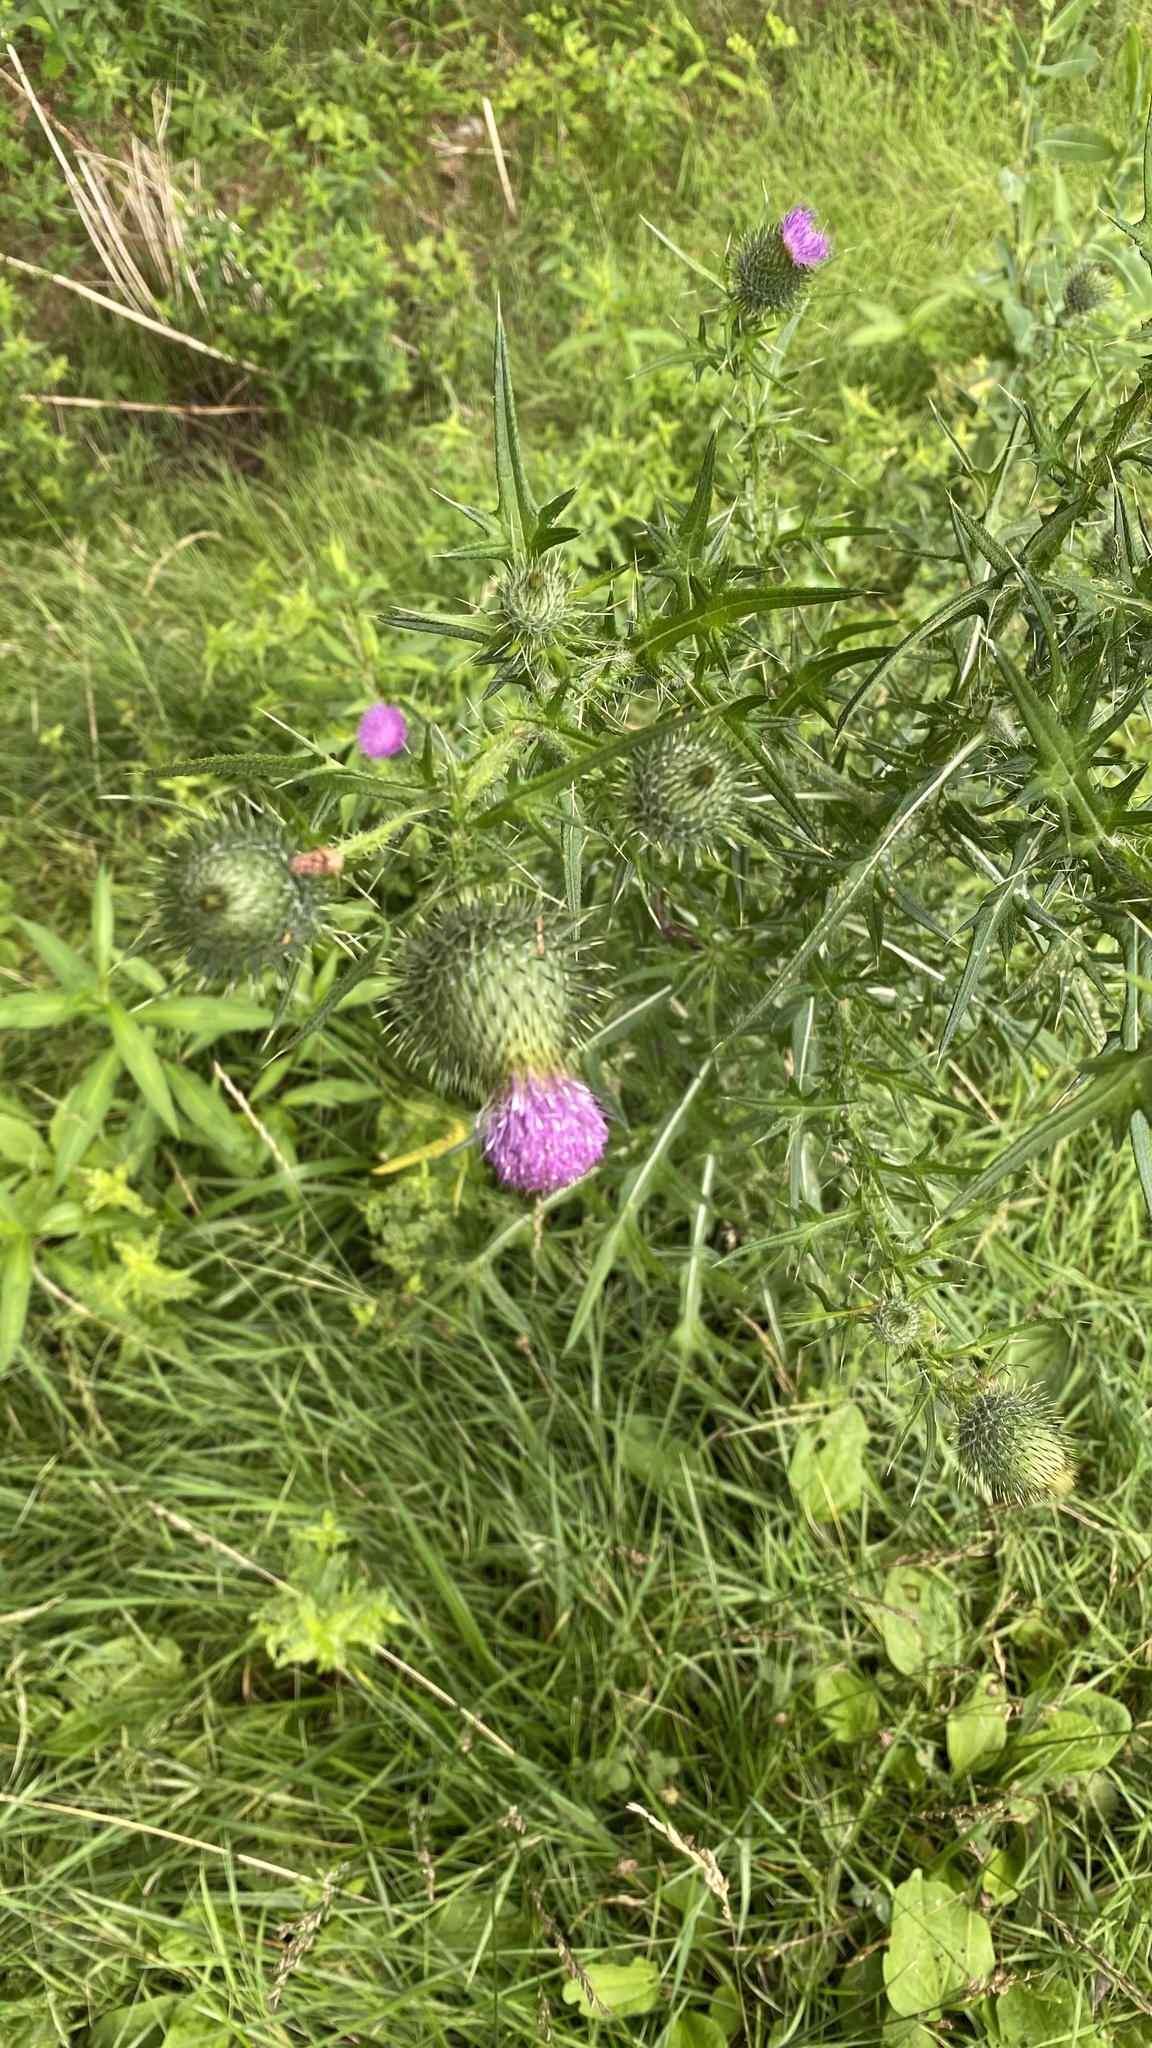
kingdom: Plantae
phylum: Tracheophyta
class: Magnoliopsida
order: Asterales
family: Asteraceae
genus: Cirsium
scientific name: Cirsium vulgare
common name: Bull thistle
